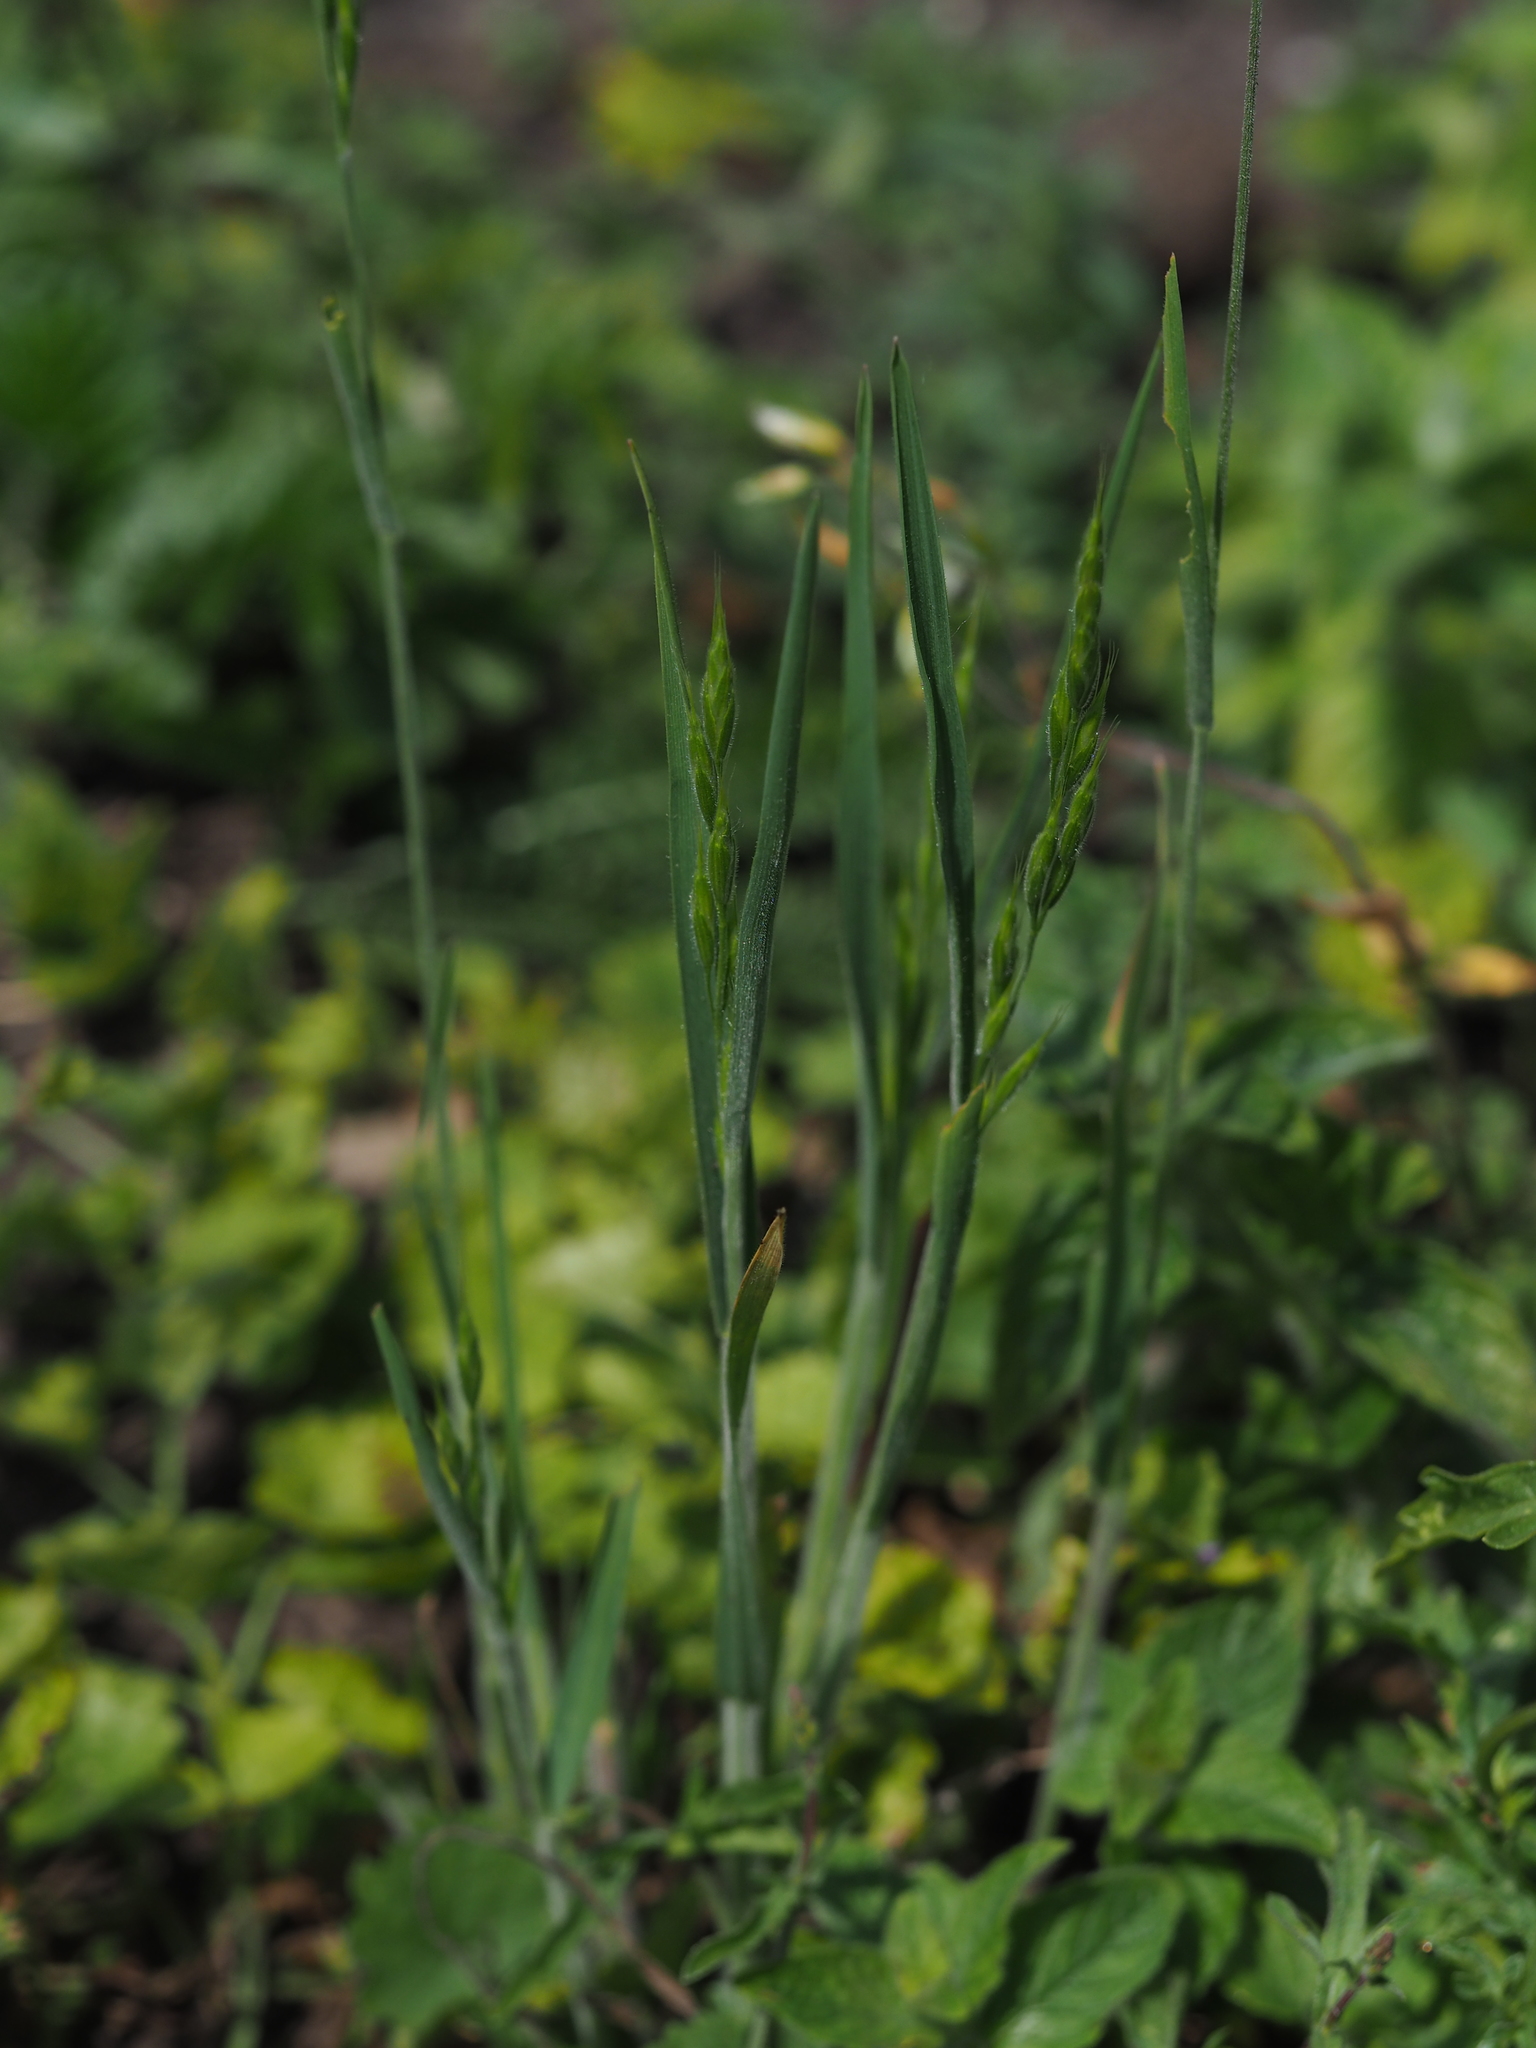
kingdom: Plantae
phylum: Tracheophyta
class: Liliopsida
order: Poales
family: Poaceae
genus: Bromus
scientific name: Bromus hordeaceus
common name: Soft brome
